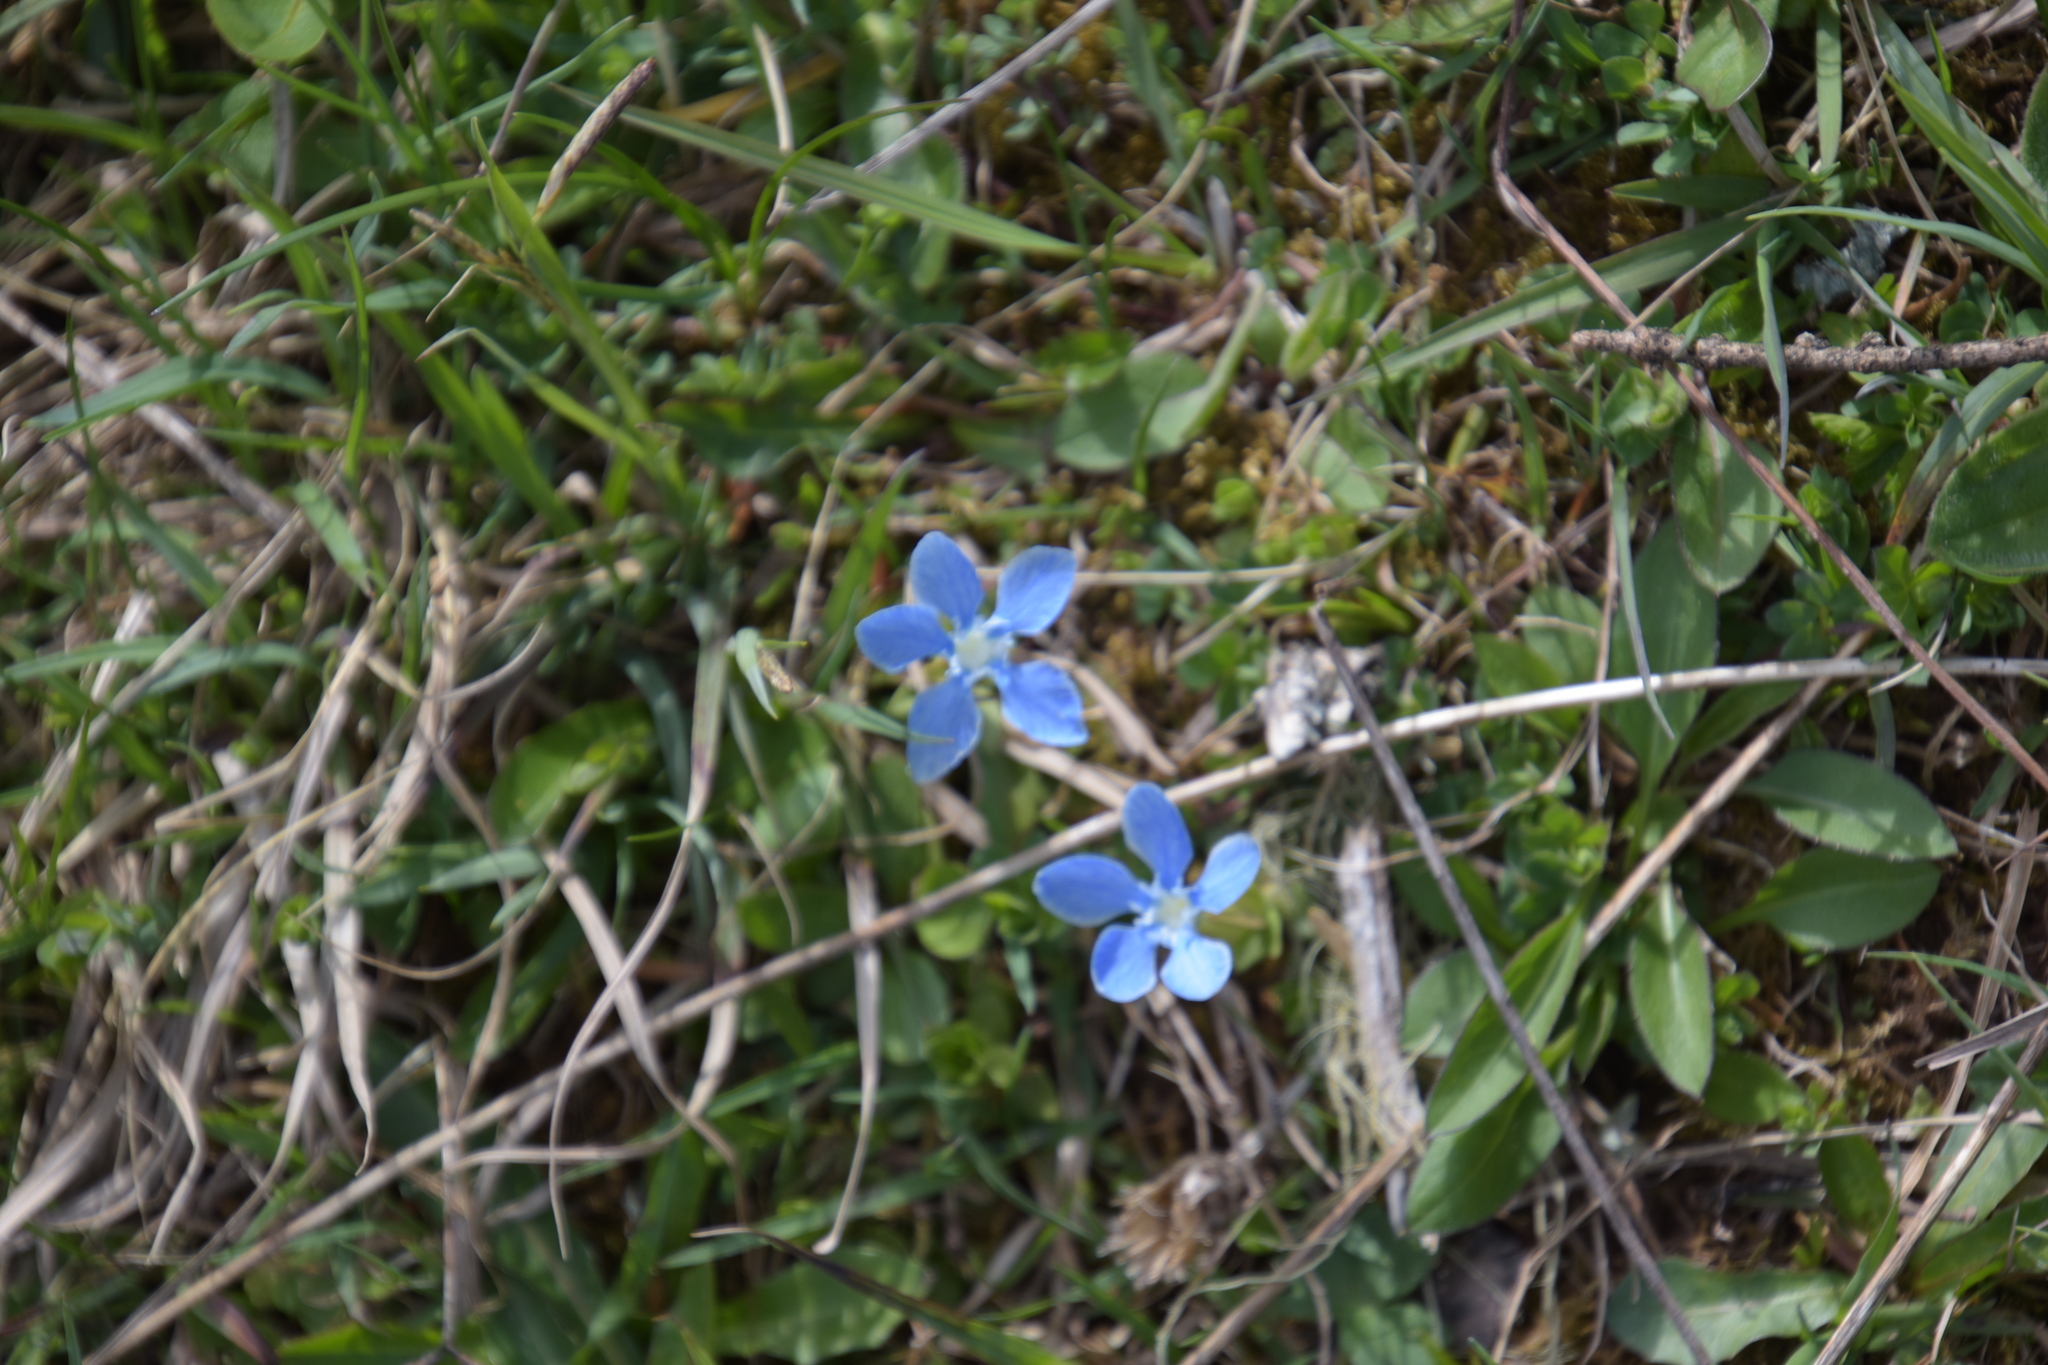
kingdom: Plantae
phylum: Tracheophyta
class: Magnoliopsida
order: Gentianales
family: Gentianaceae
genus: Gentiana
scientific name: Gentiana verna
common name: Spring gentian
